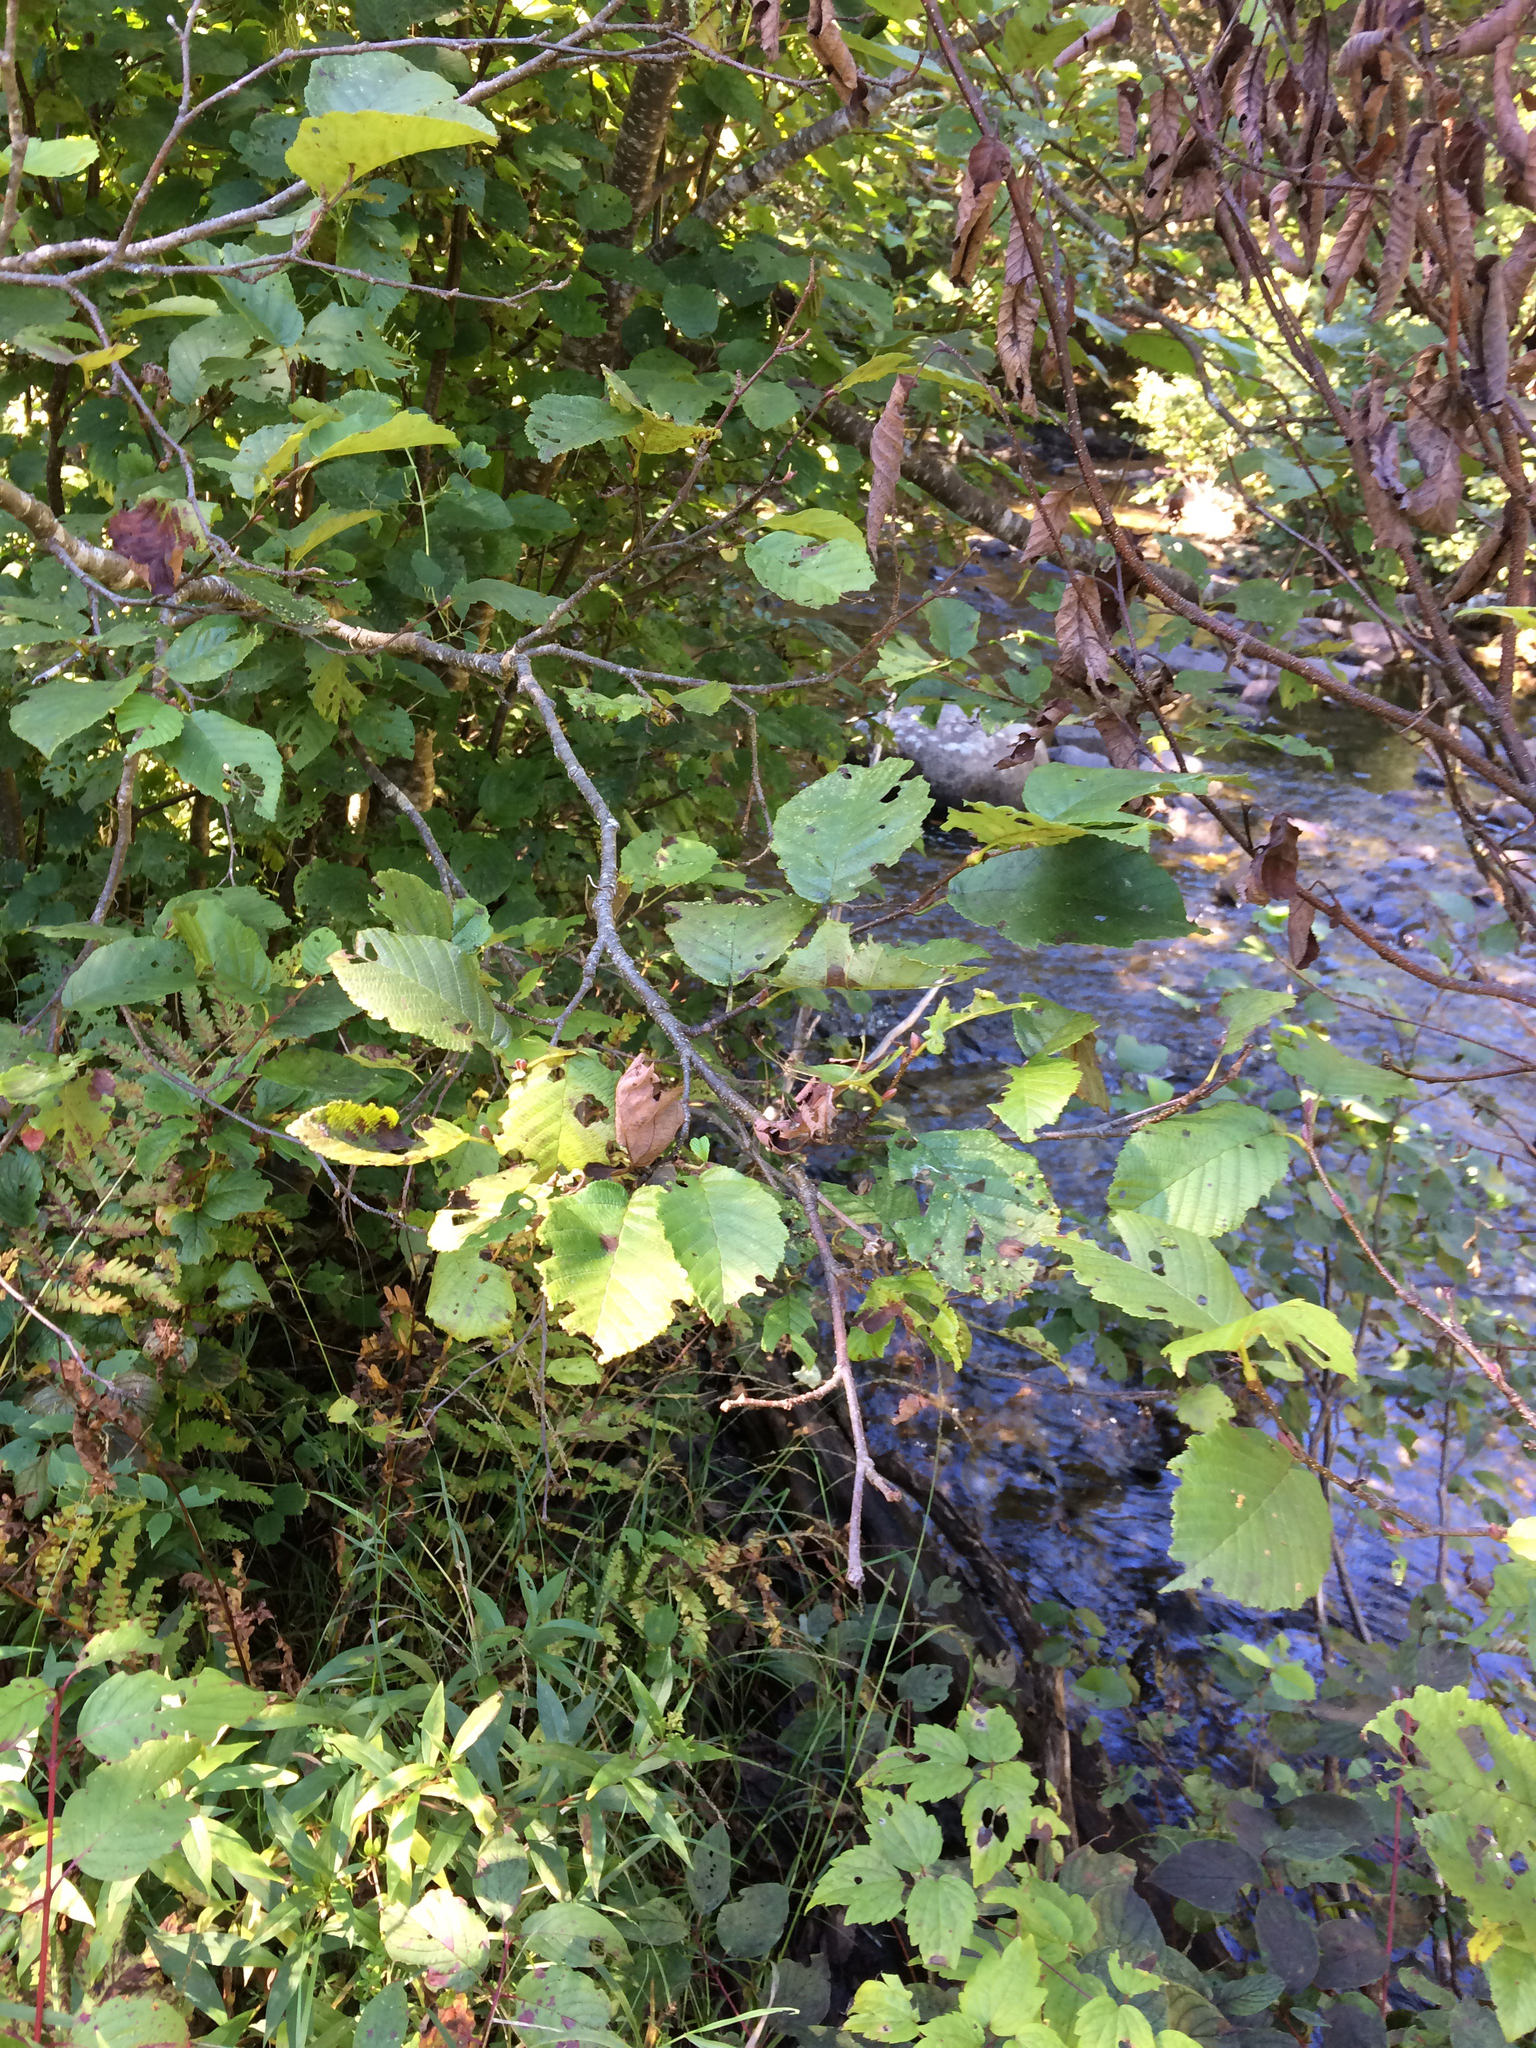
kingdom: Plantae
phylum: Tracheophyta
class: Magnoliopsida
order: Fagales
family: Betulaceae
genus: Alnus
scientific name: Alnus incana
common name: Grey alder
